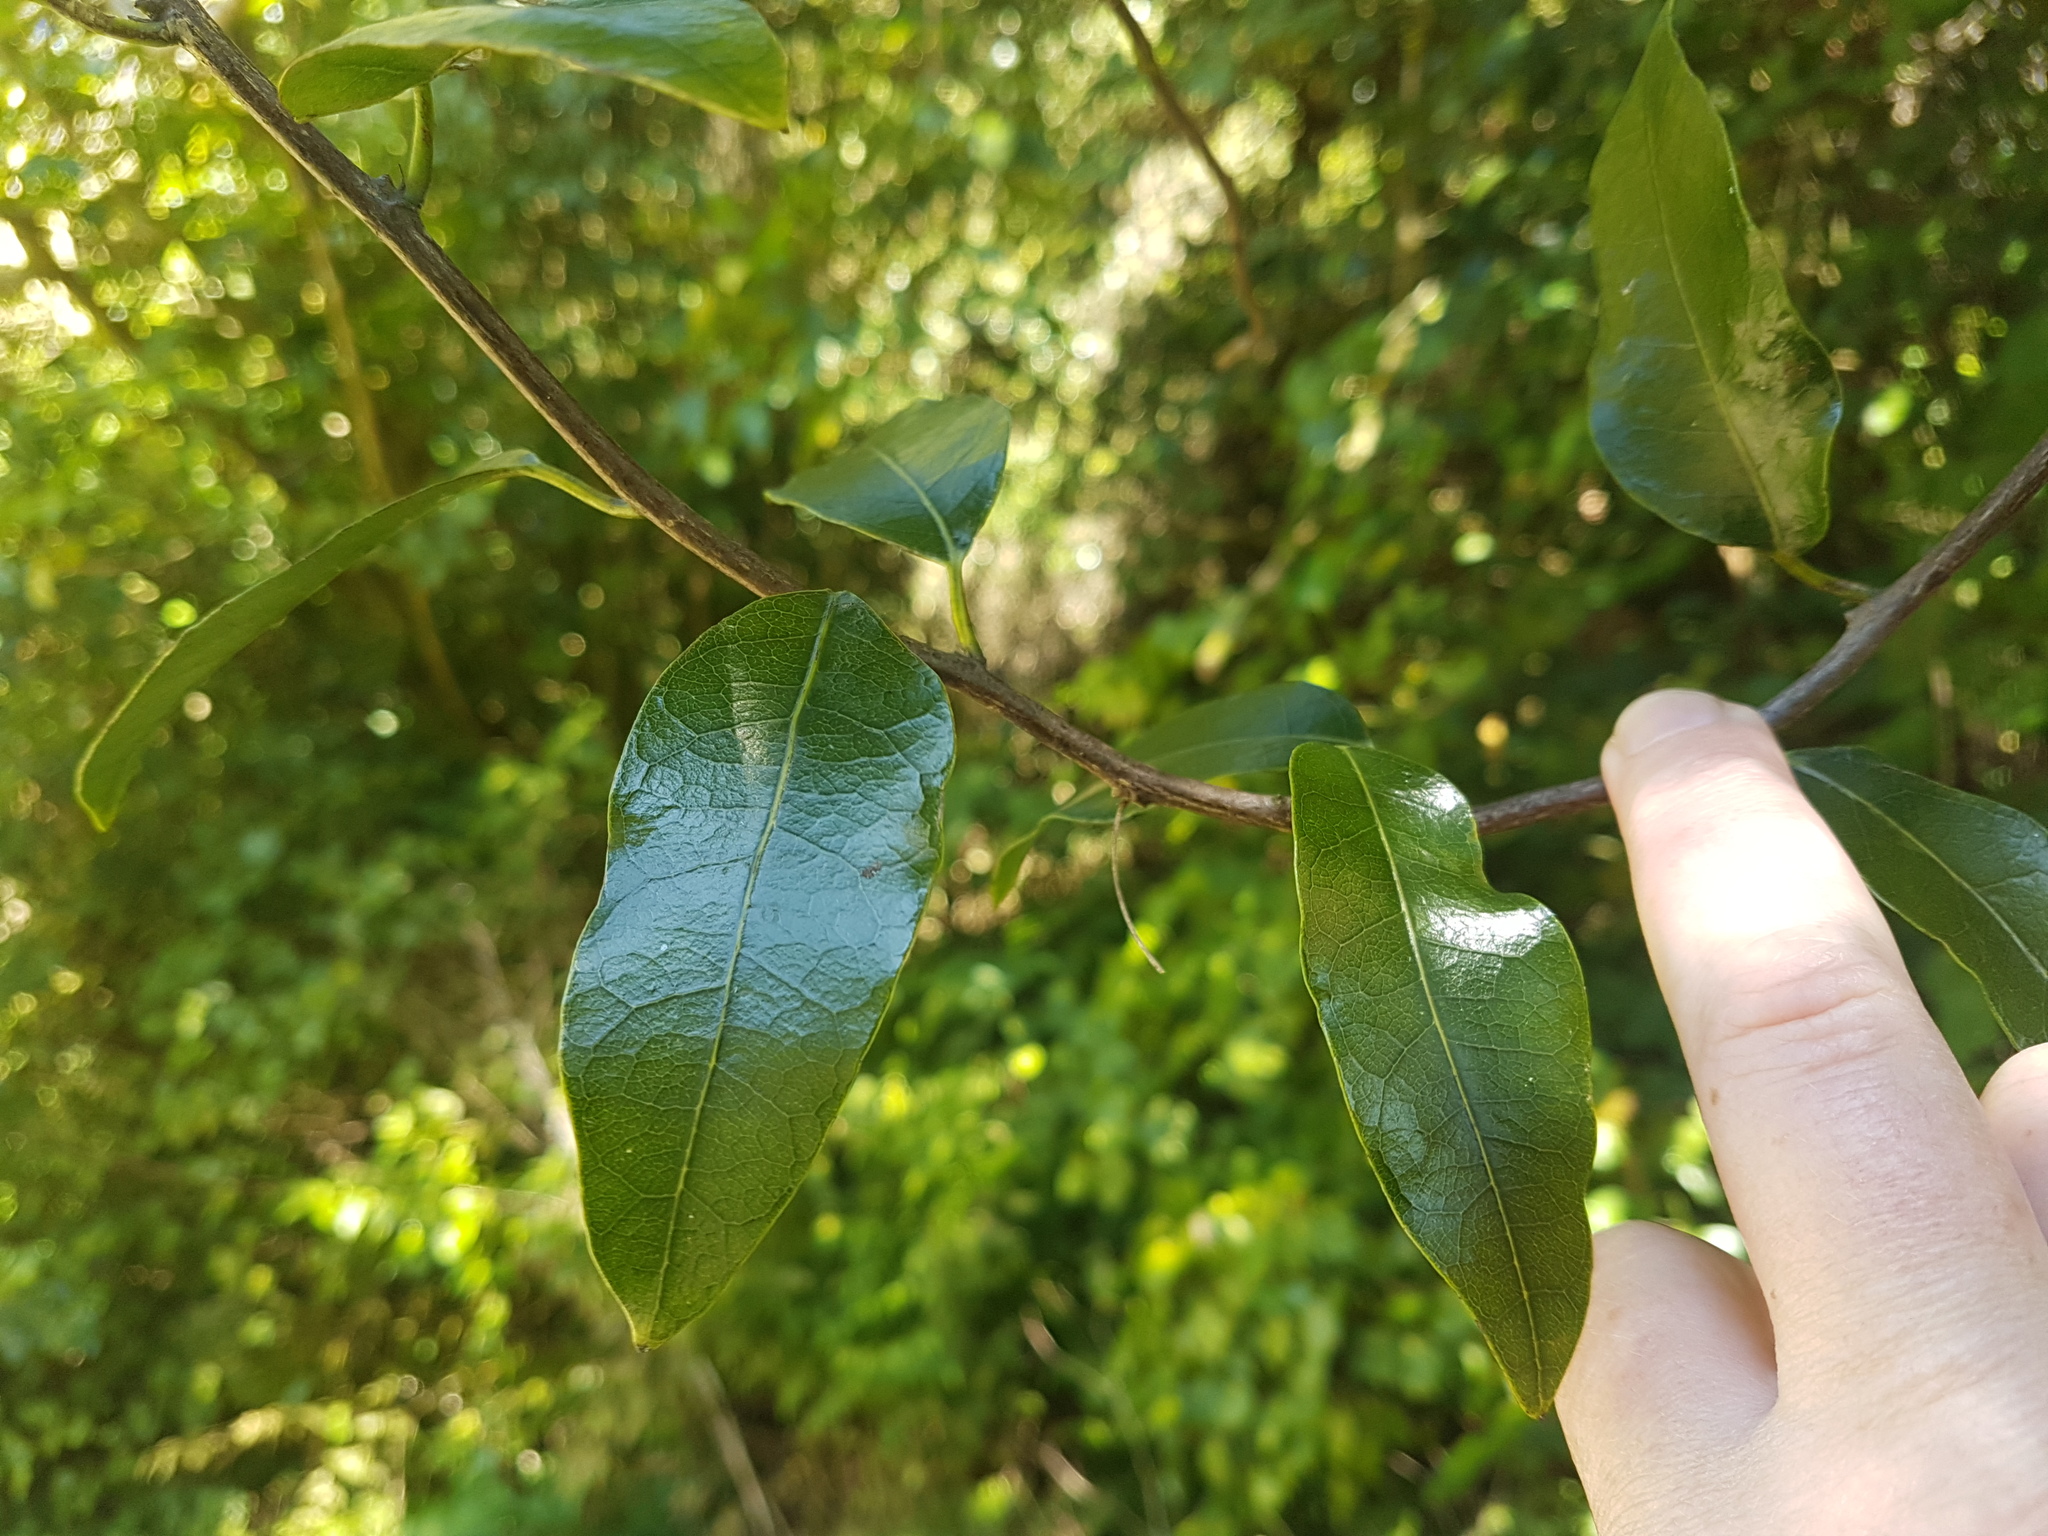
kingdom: Plantae
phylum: Tracheophyta
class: Magnoliopsida
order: Malpighiales
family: Passifloraceae
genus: Passiflora
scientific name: Passiflora tetrandra
